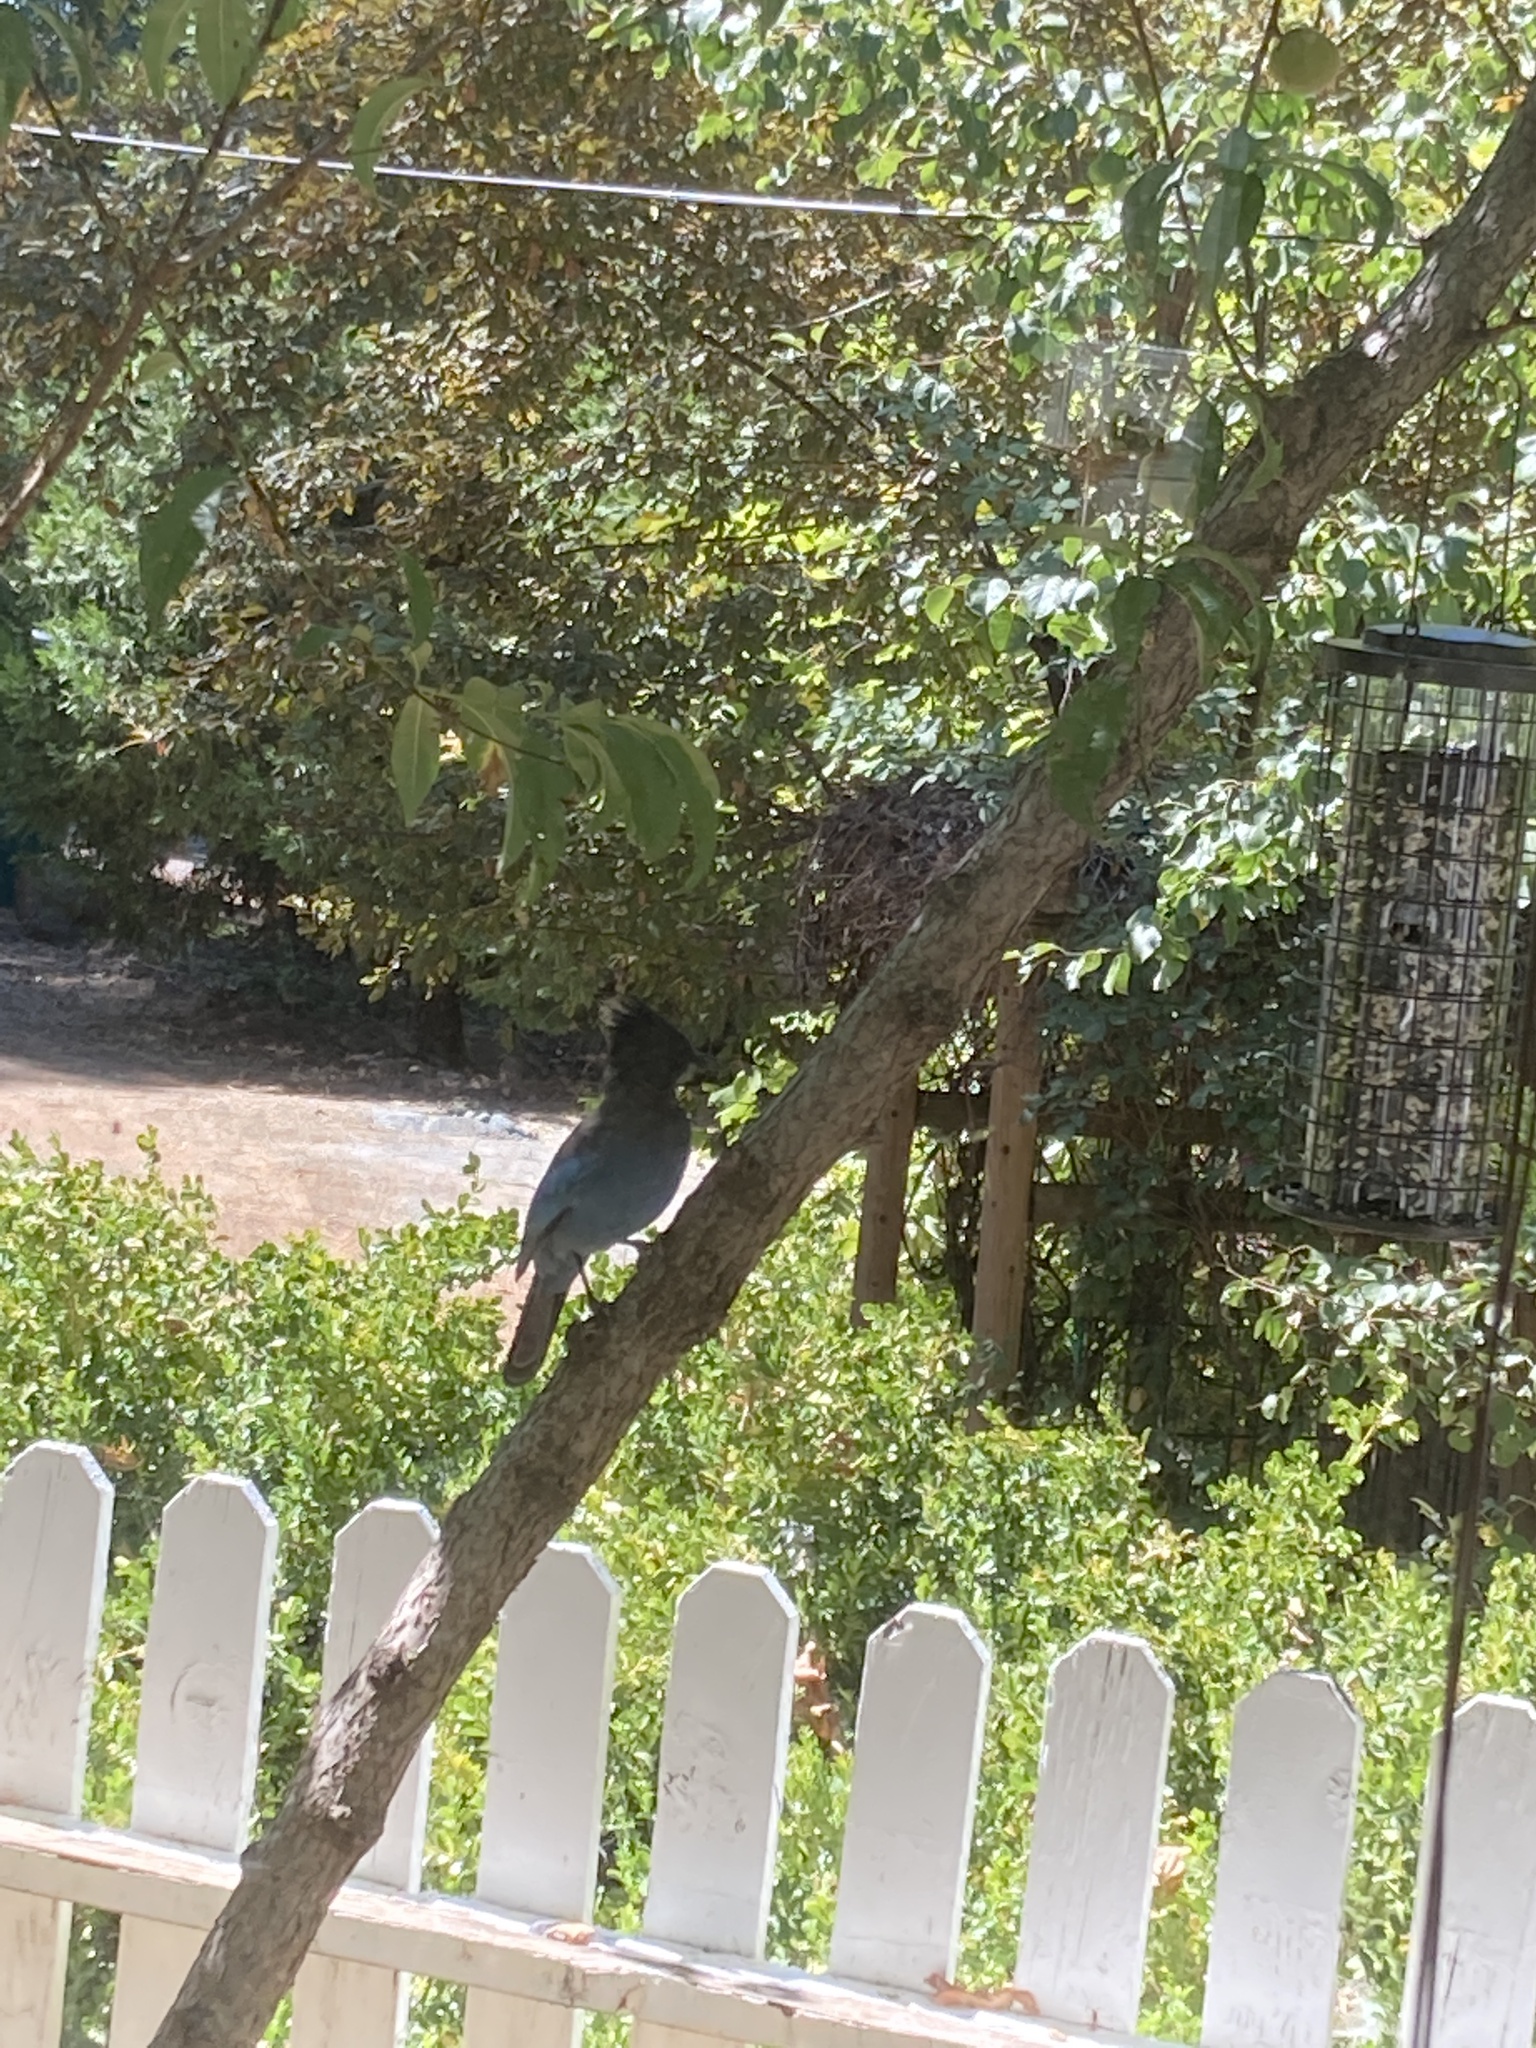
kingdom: Animalia
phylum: Chordata
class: Aves
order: Passeriformes
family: Corvidae
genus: Cyanocitta
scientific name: Cyanocitta stelleri
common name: Steller's jay
